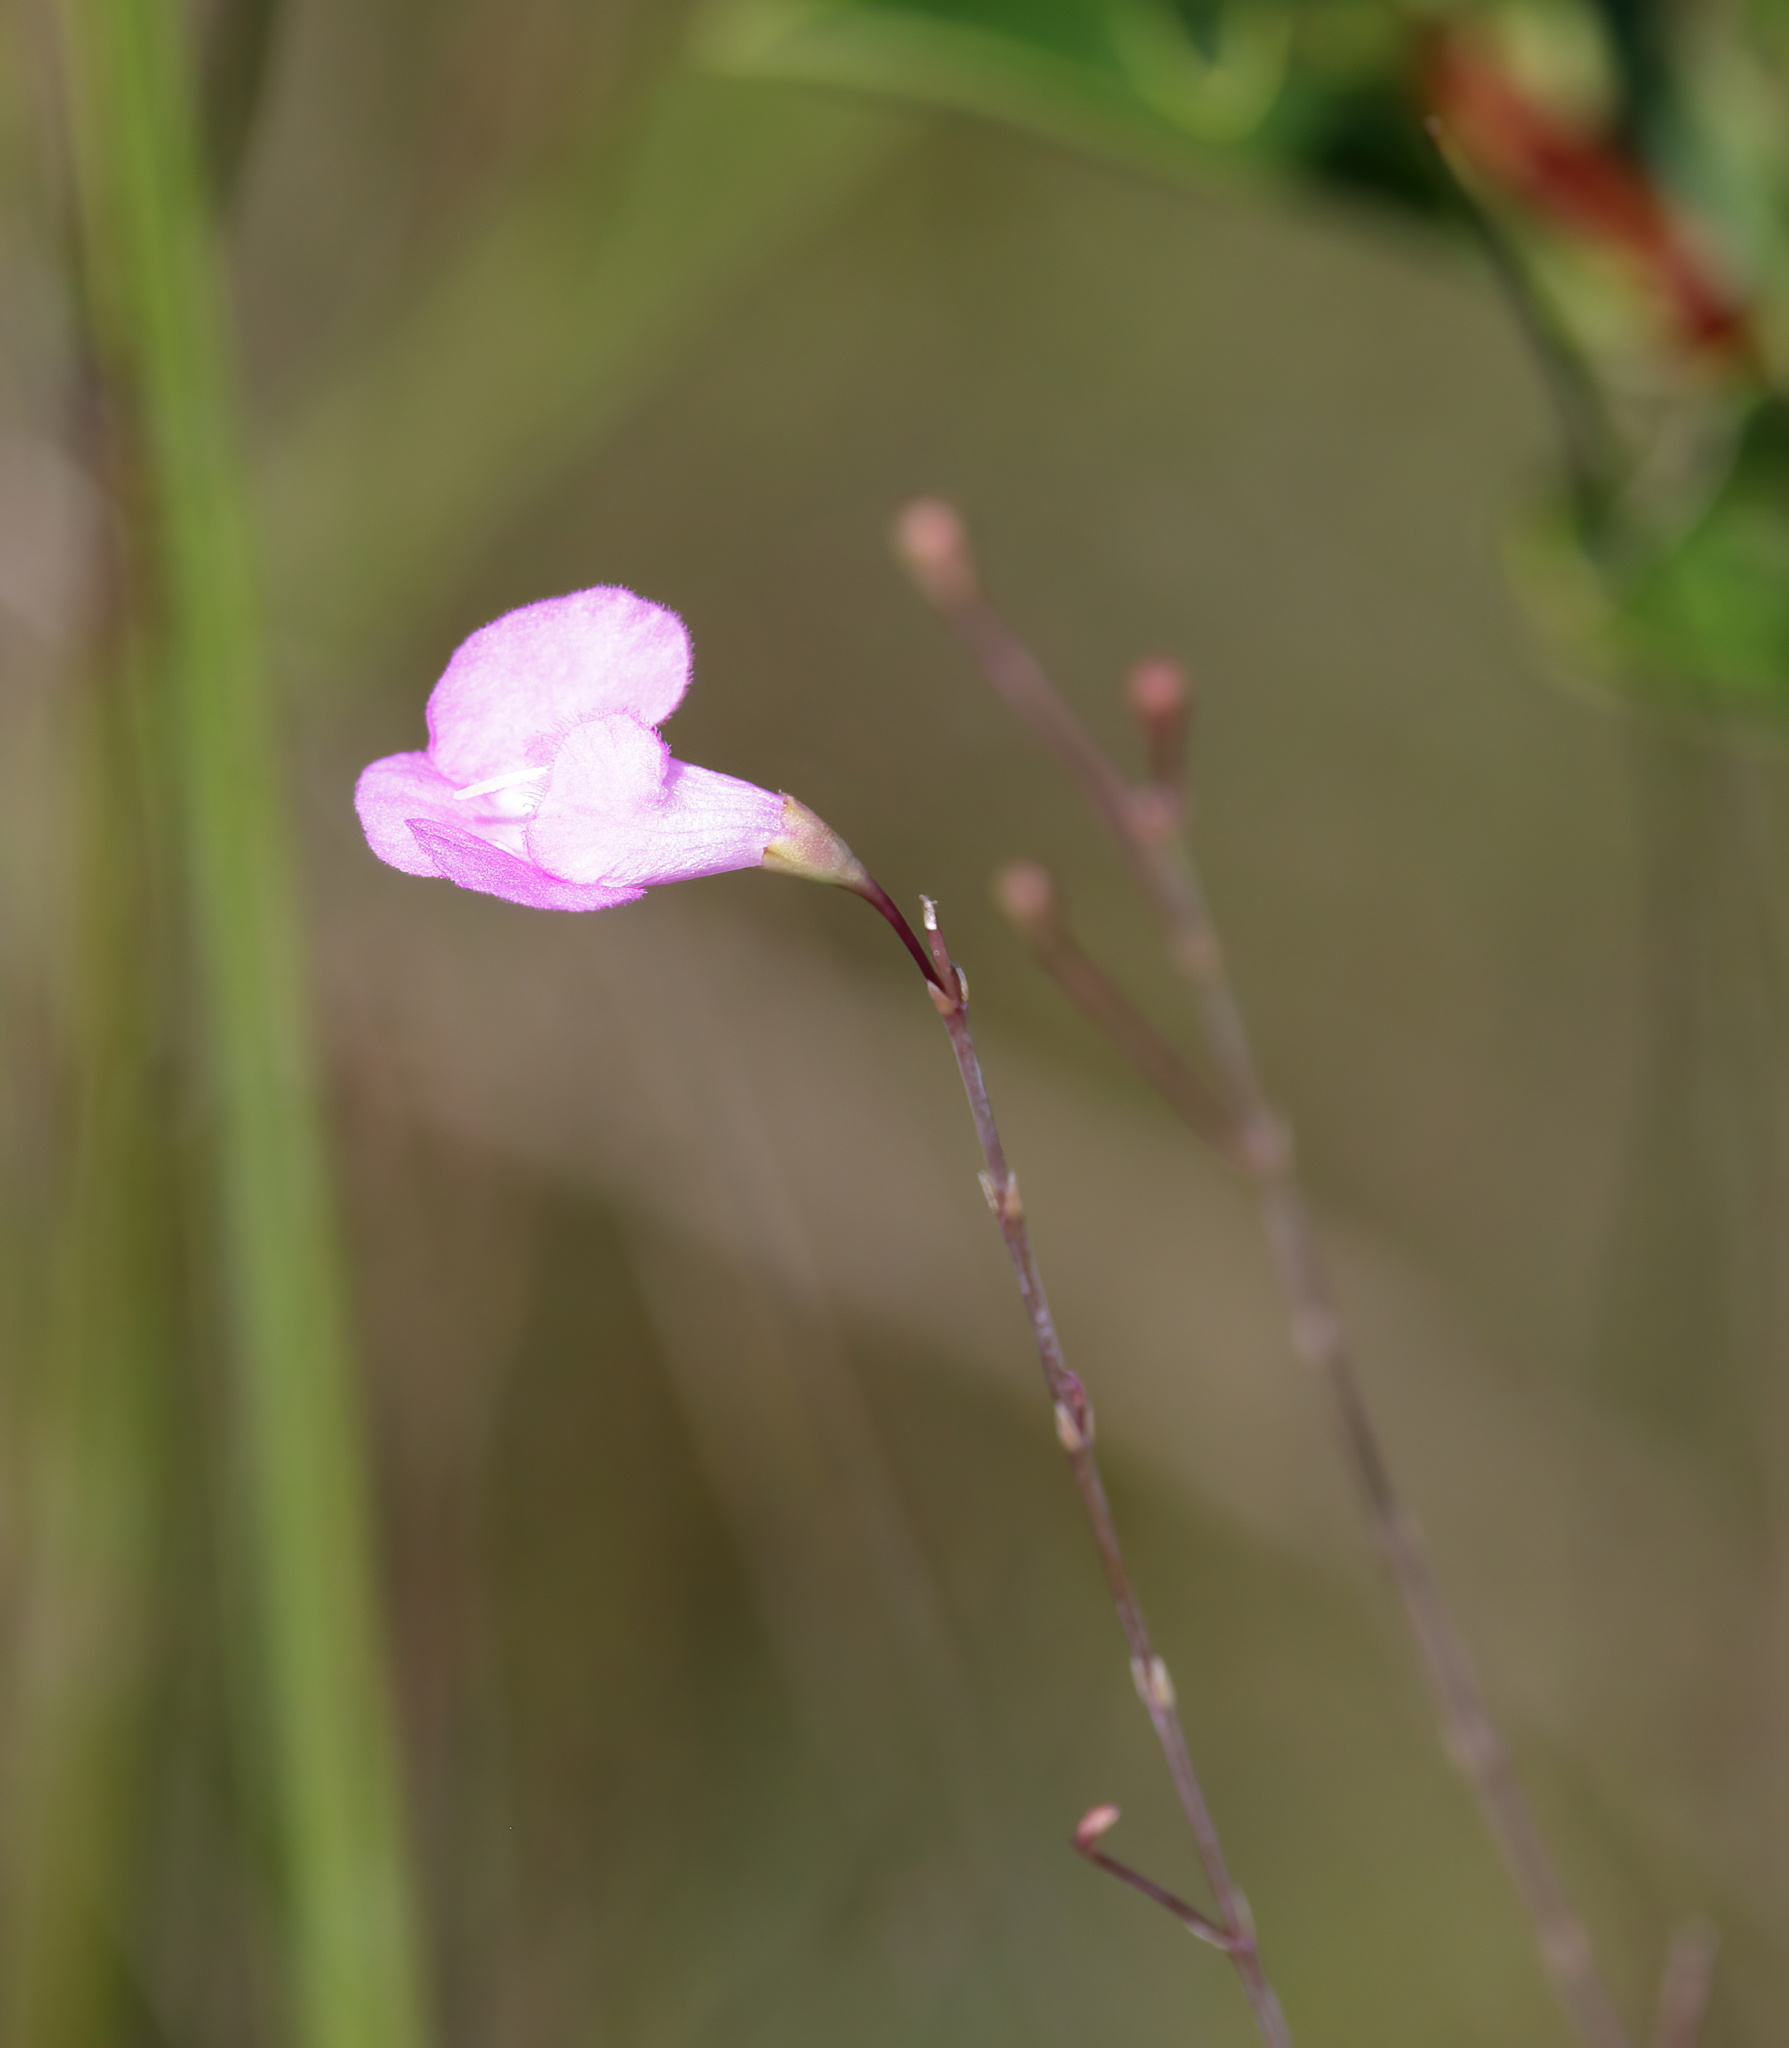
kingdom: Plantae
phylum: Tracheophyta
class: Magnoliopsida
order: Lamiales
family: Orobanchaceae
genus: Agalinis
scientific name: Agalinis filicaulis
